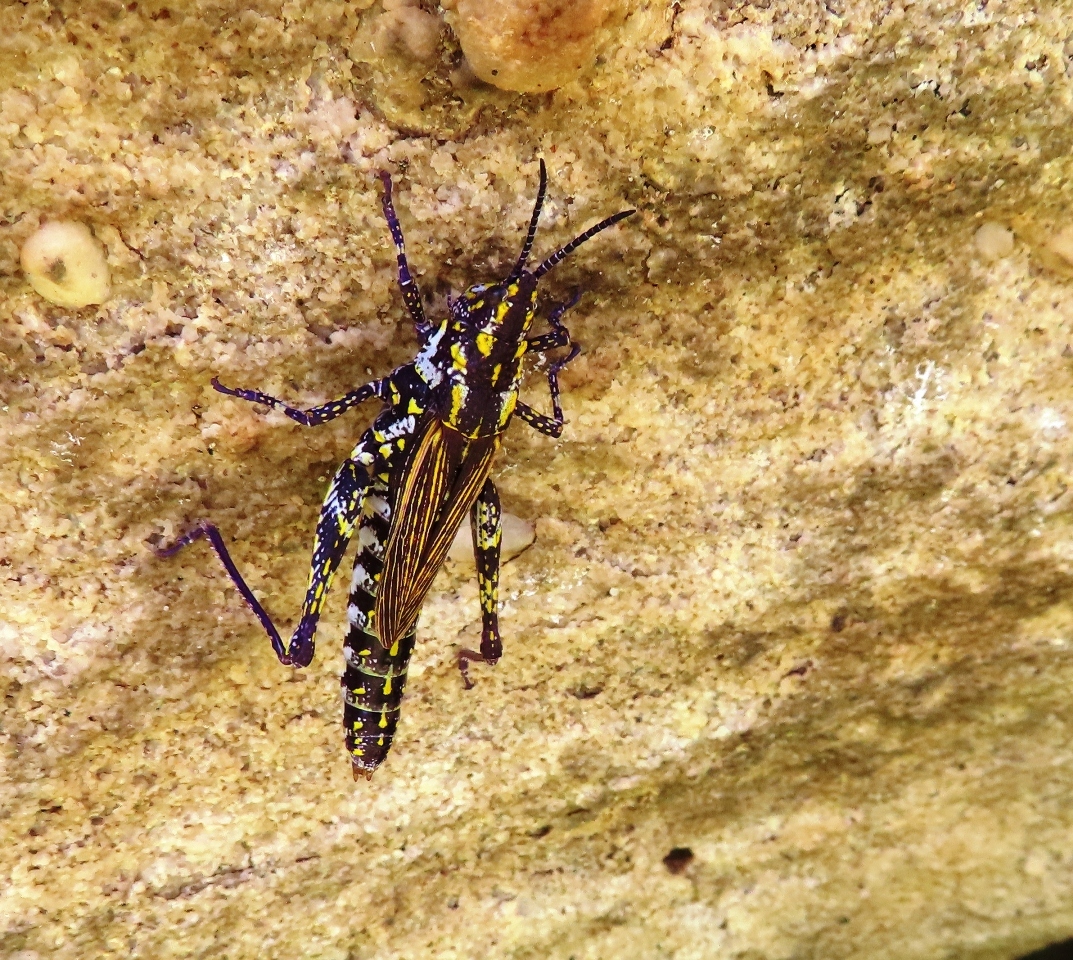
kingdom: Animalia
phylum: Arthropoda
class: Insecta
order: Orthoptera
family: Pyrgomorphidae
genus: Ochrophlebia
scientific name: Ochrophlebia cafra
